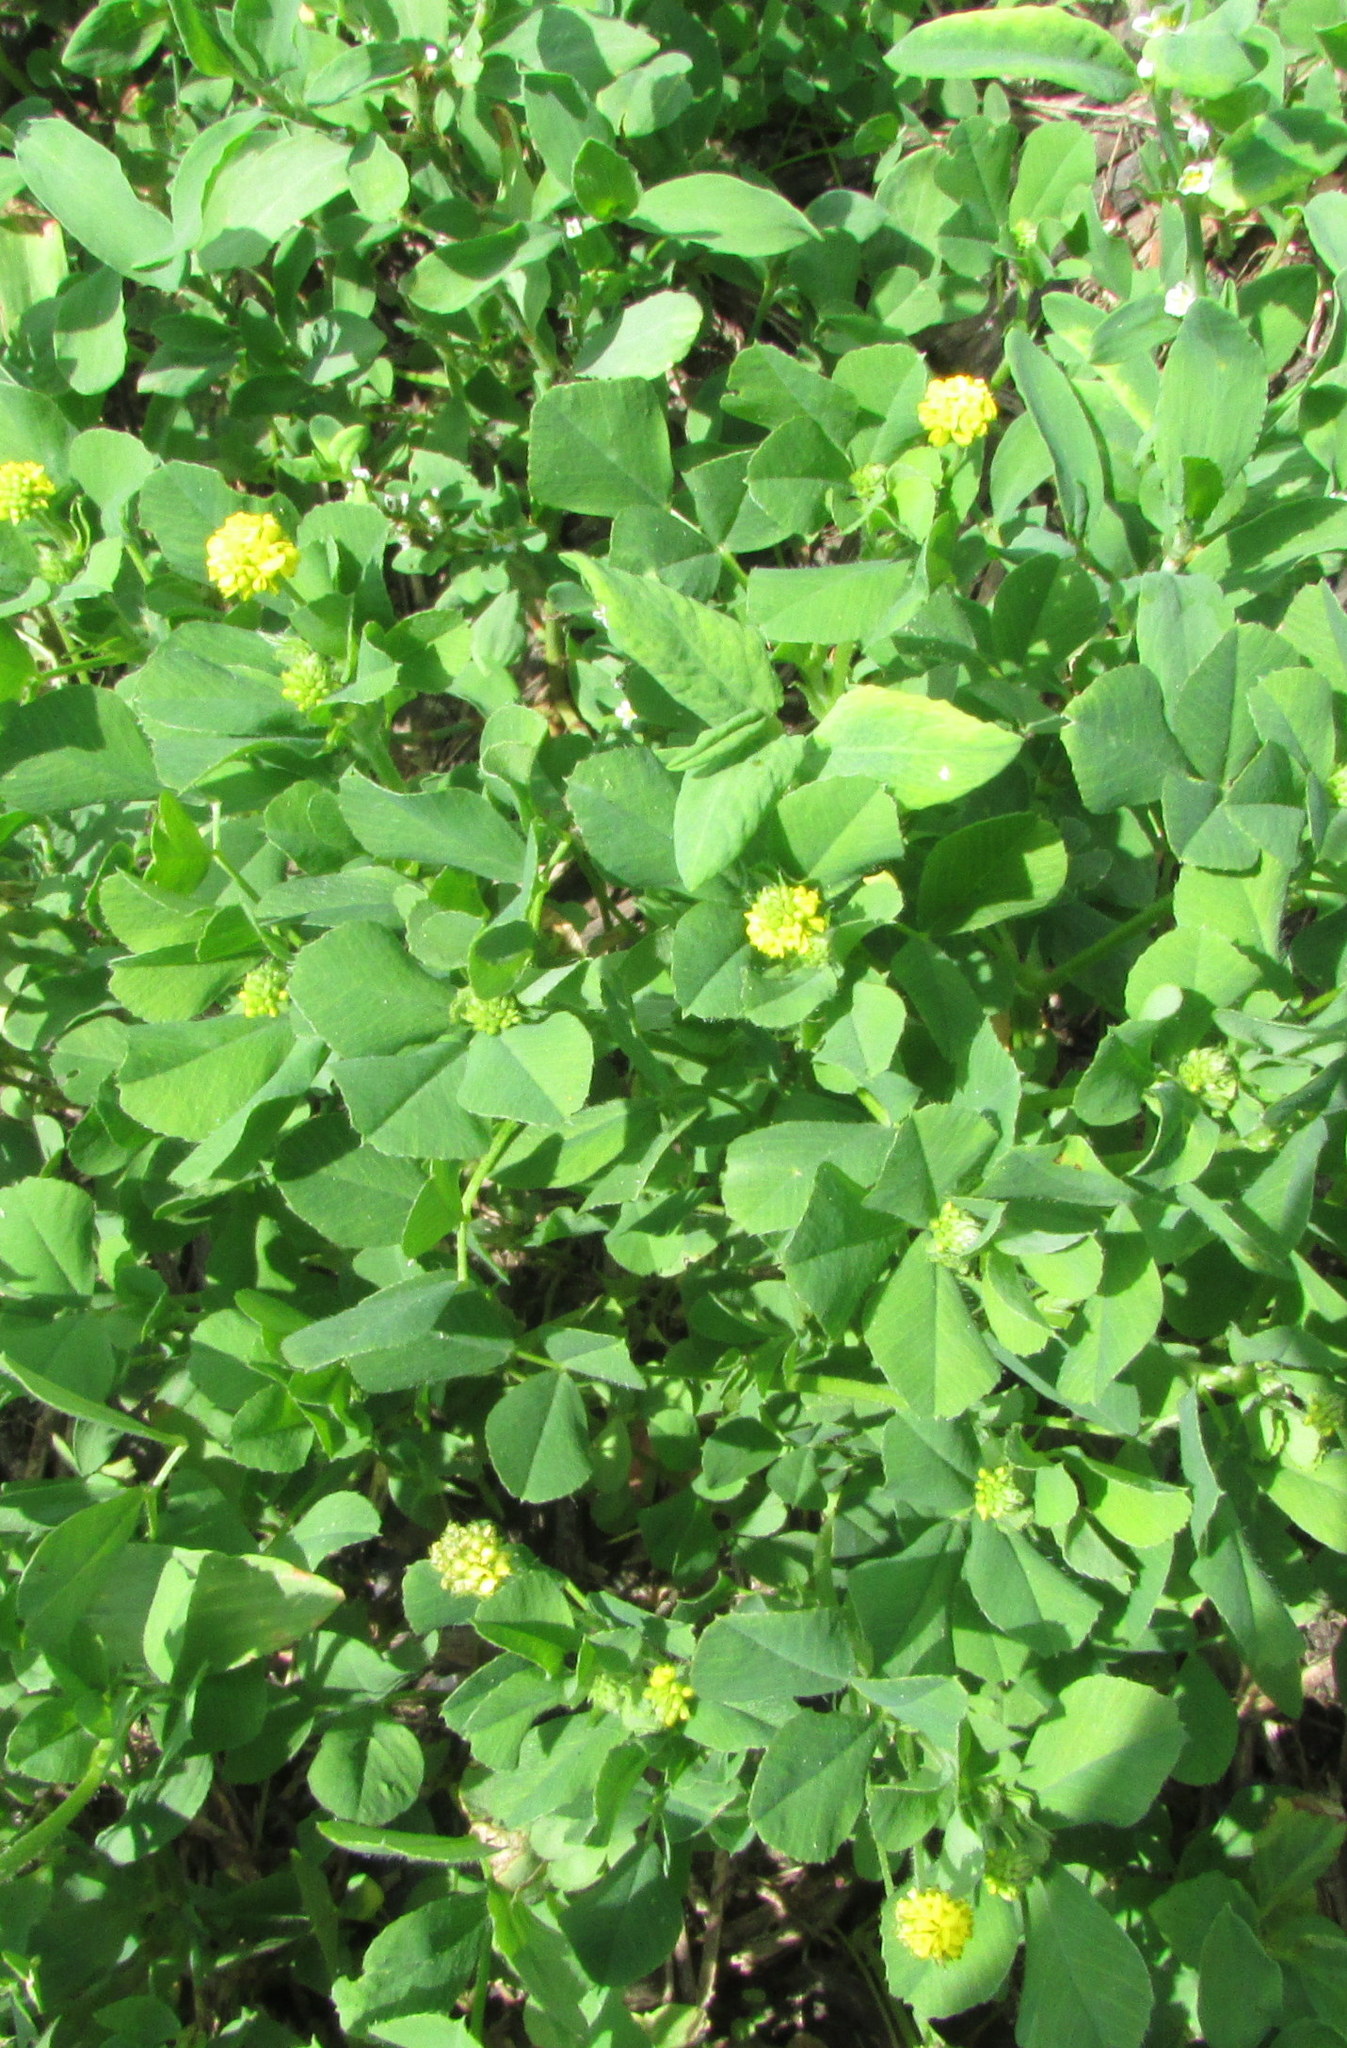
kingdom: Plantae
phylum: Tracheophyta
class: Magnoliopsida
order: Fabales
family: Fabaceae
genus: Medicago
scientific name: Medicago lupulina
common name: Black medick
